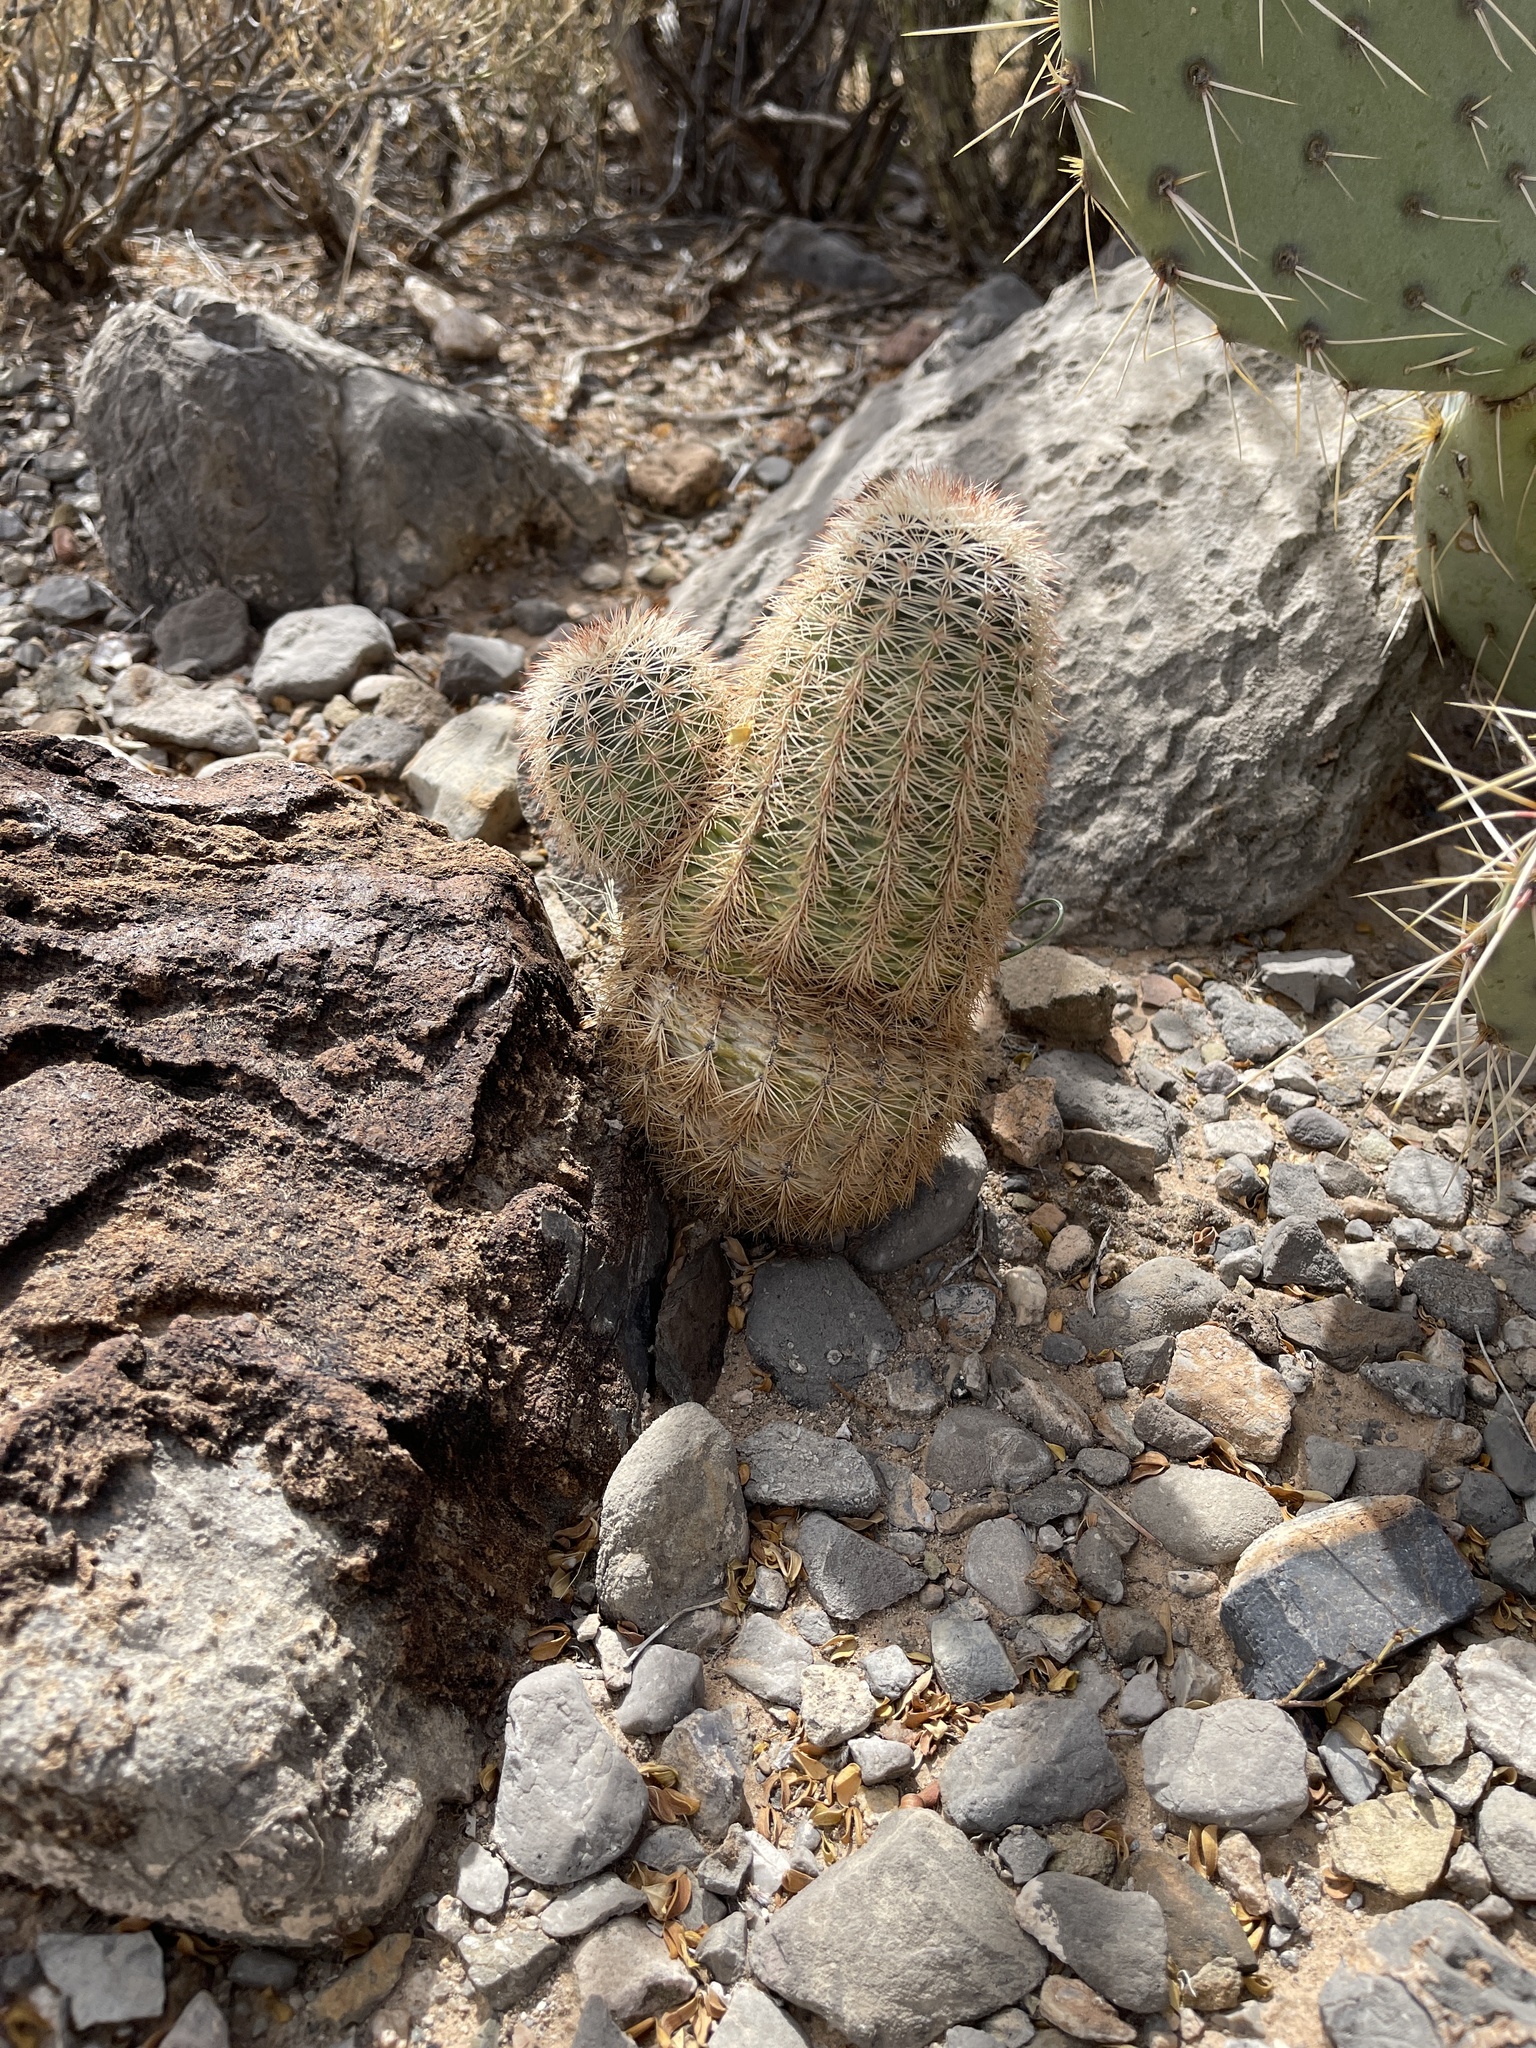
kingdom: Plantae
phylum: Tracheophyta
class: Magnoliopsida
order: Caryophyllales
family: Cactaceae
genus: Echinocereus
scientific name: Echinocereus dasyacanthus
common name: Spiny hedgehog cactus
